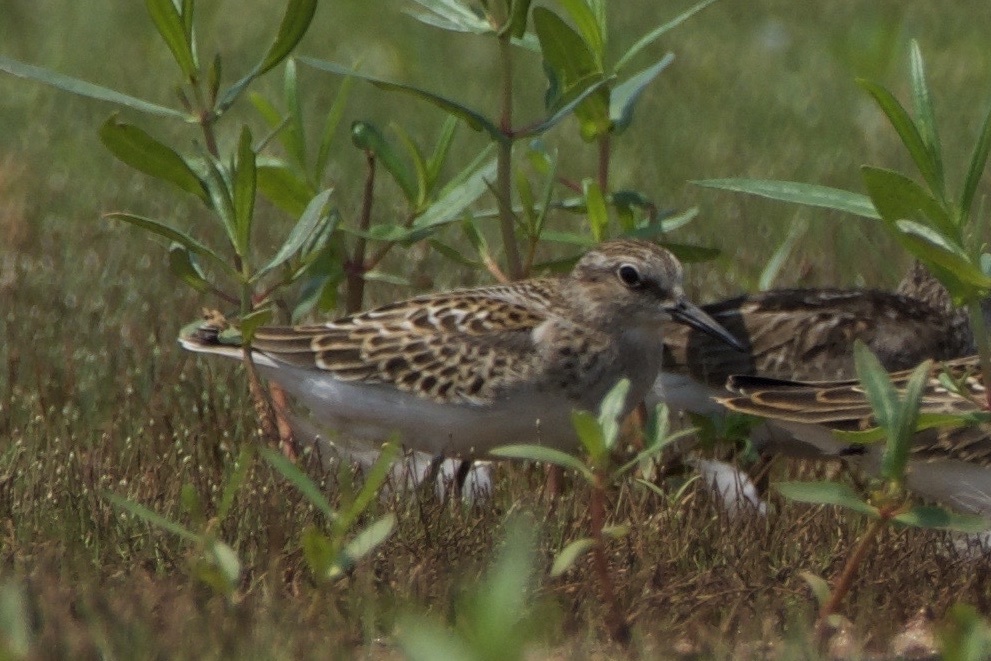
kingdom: Animalia
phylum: Chordata
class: Aves
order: Charadriiformes
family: Scolopacidae
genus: Calidris
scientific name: Calidris minutilla
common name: Least sandpiper
